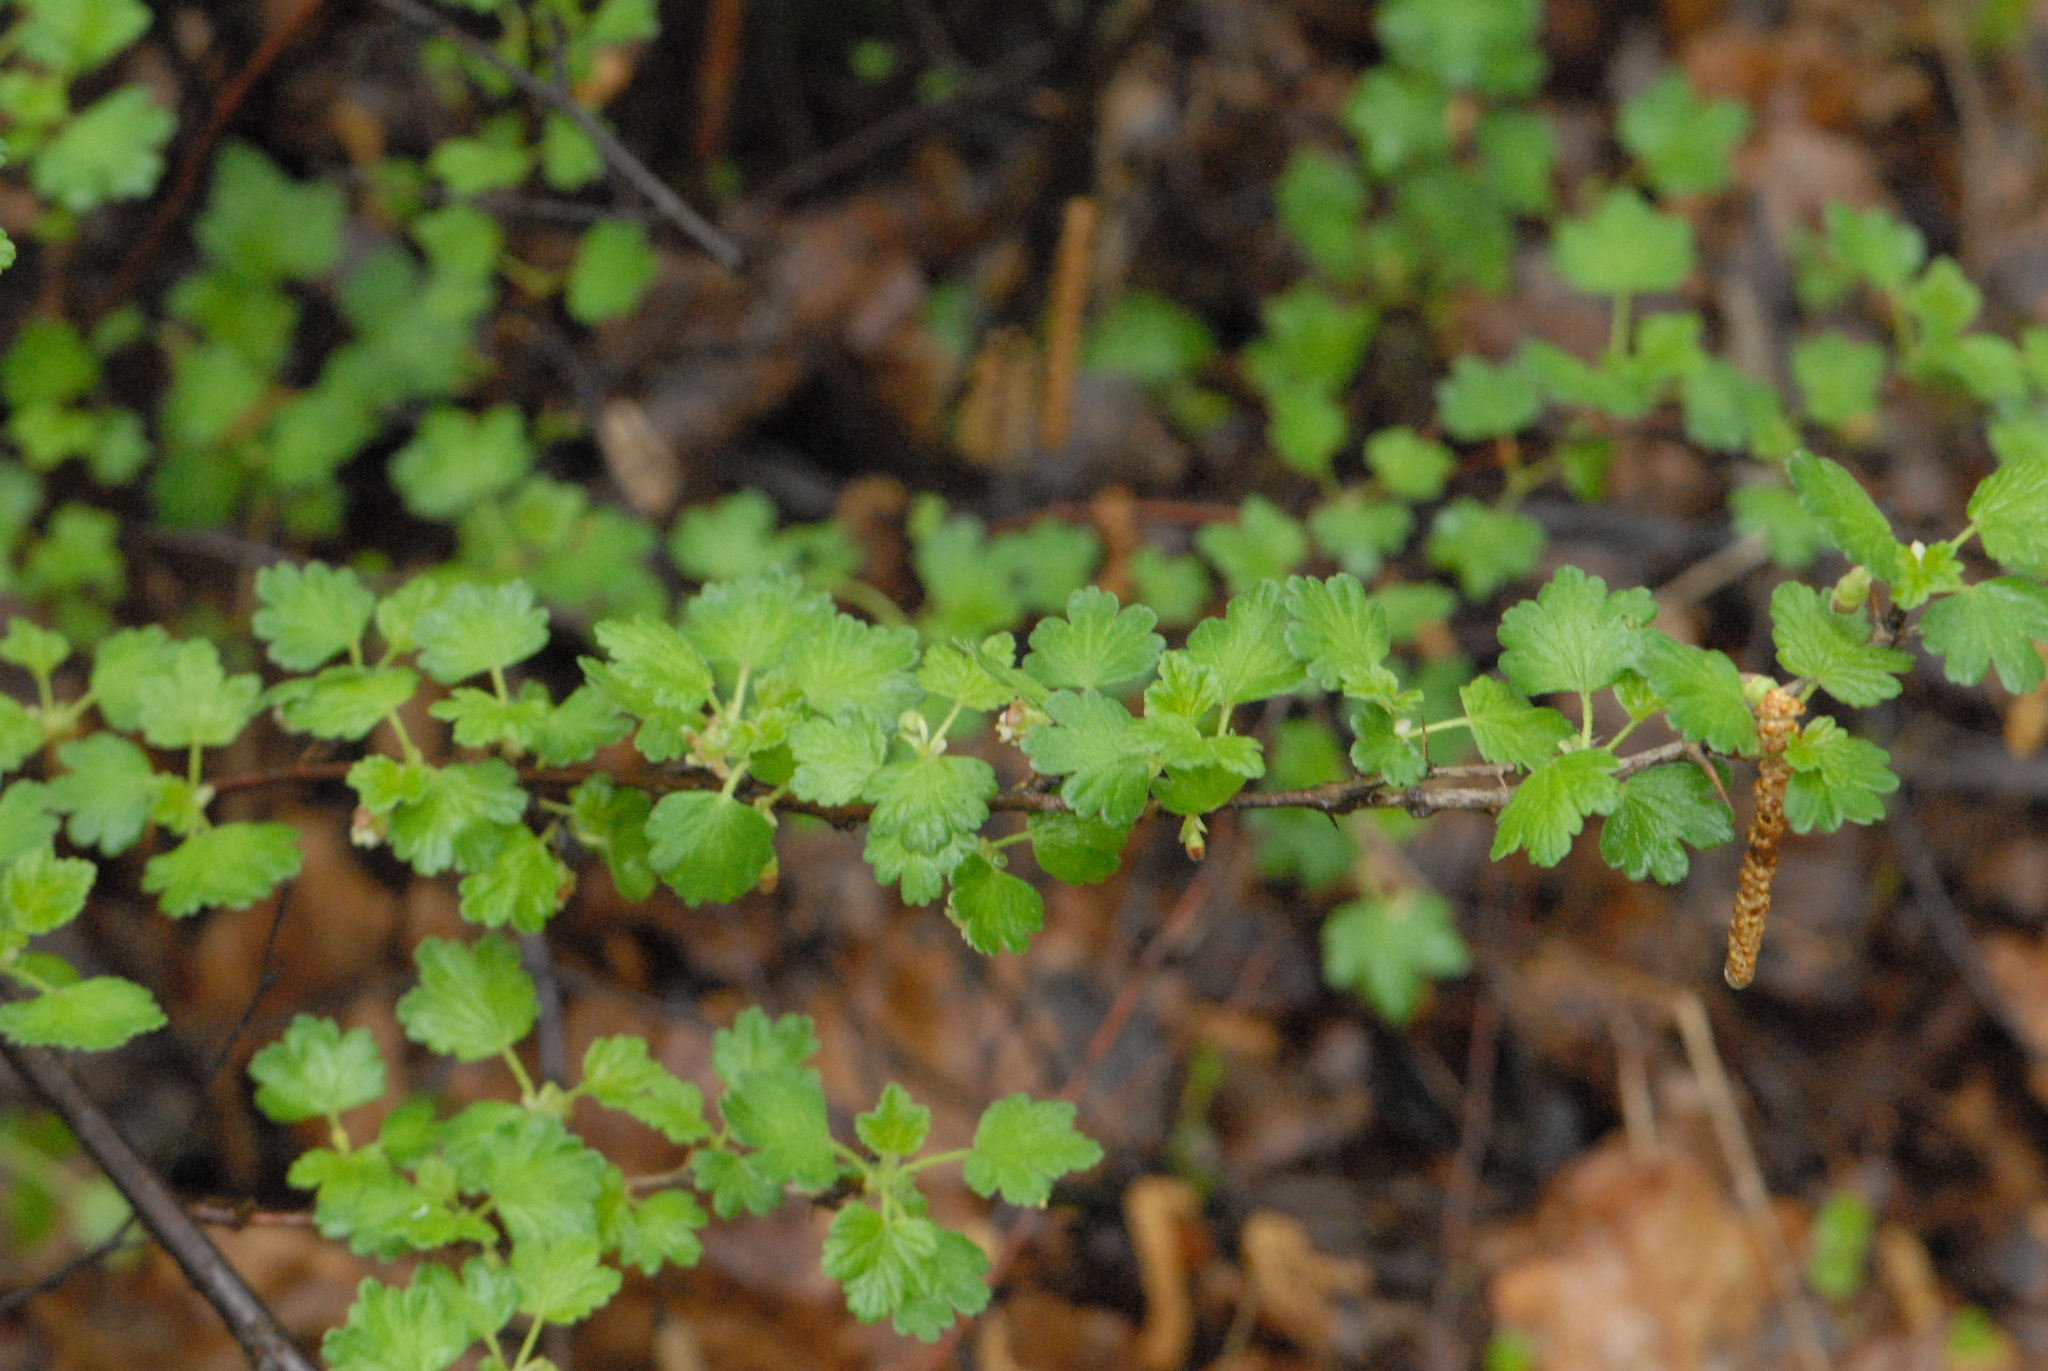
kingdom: Plantae
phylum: Tracheophyta
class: Magnoliopsida
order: Saxifragales
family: Grossulariaceae
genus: Ribes
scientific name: Ribes uva-crispa
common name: Gooseberry
